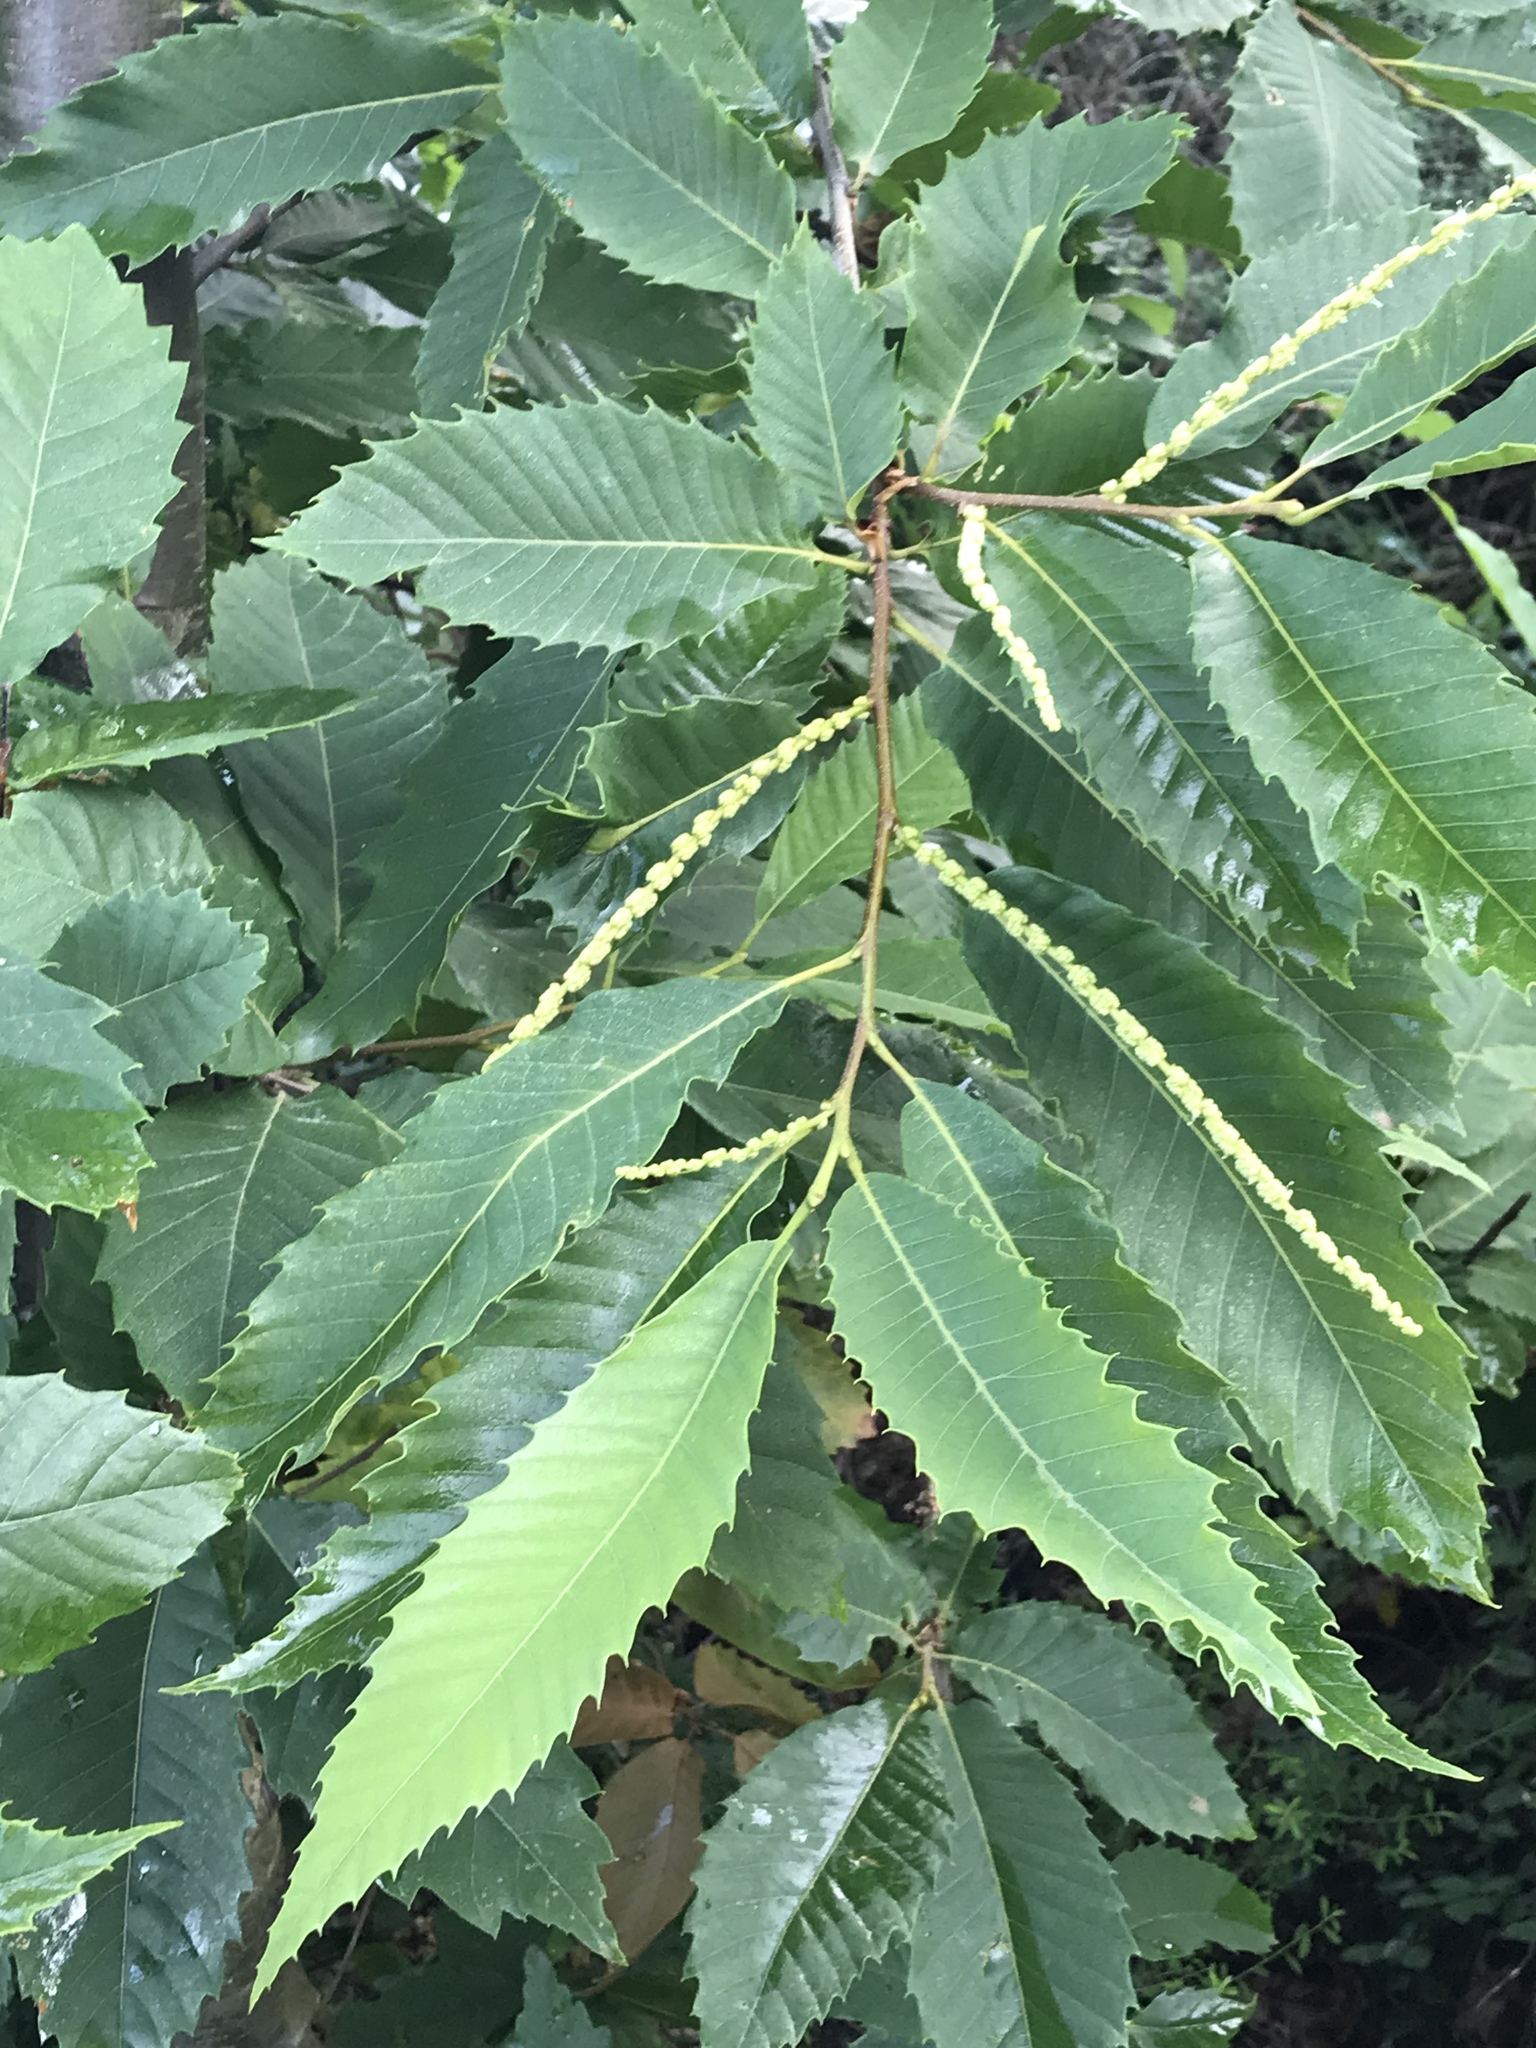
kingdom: Plantae
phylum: Tracheophyta
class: Magnoliopsida
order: Fagales
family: Fagaceae
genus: Castanea
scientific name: Castanea sativa
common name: Sweet chestnut
